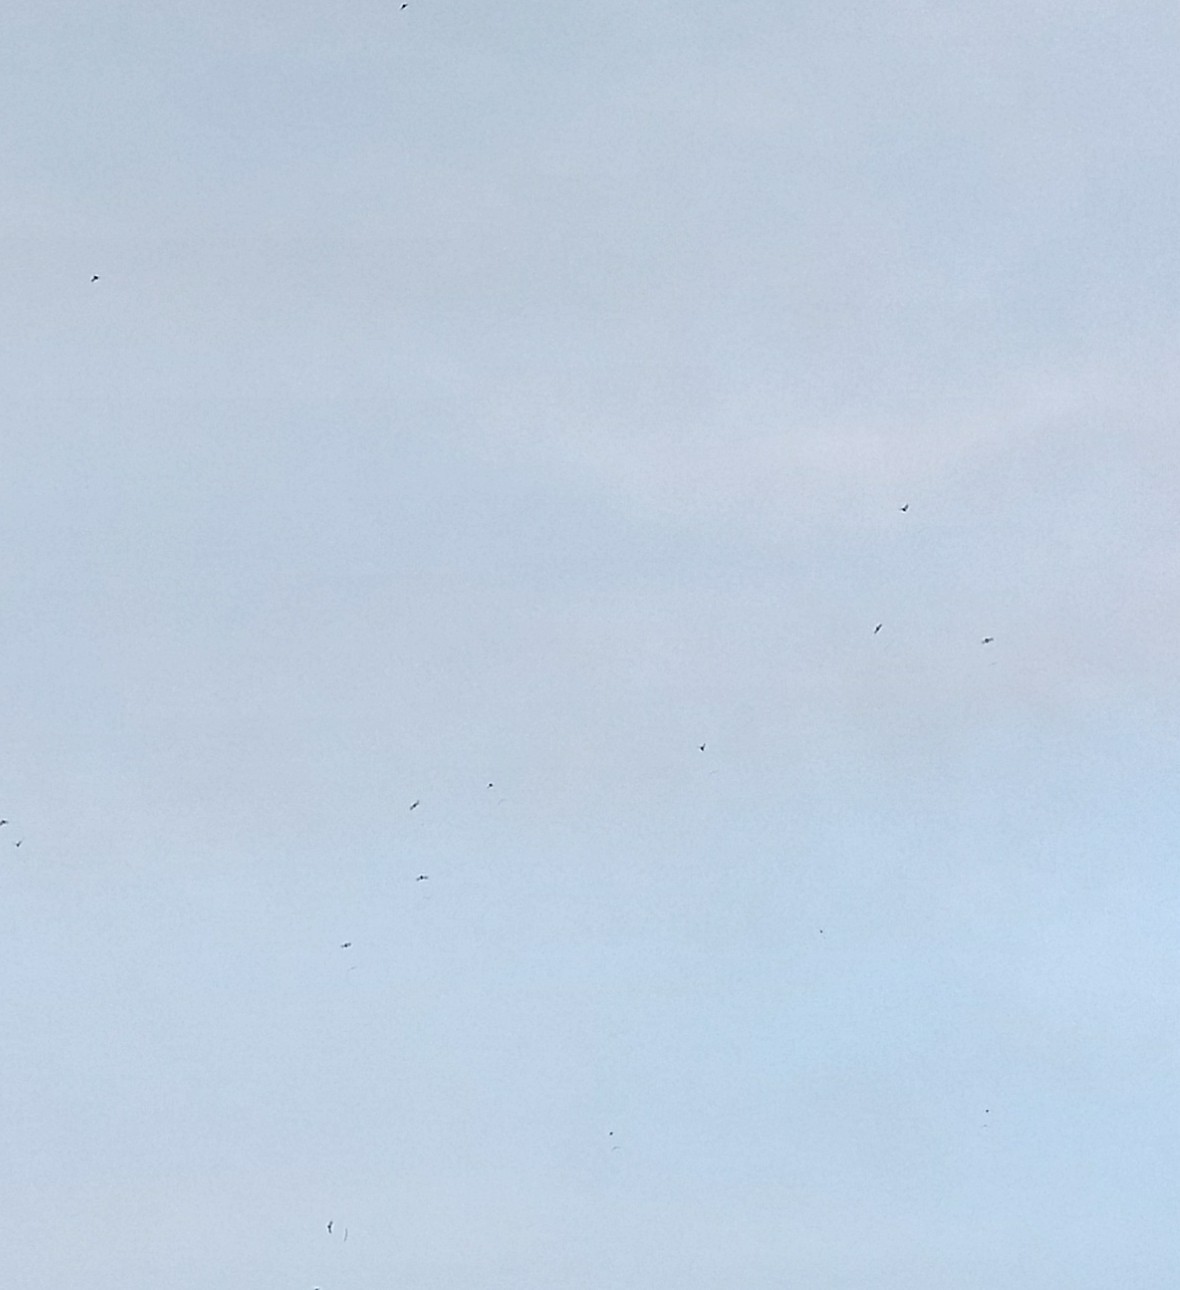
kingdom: Animalia
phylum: Chordata
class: Aves
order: Apodiformes
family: Apodidae
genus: Chaetura
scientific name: Chaetura pelagica
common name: Chimney swift
